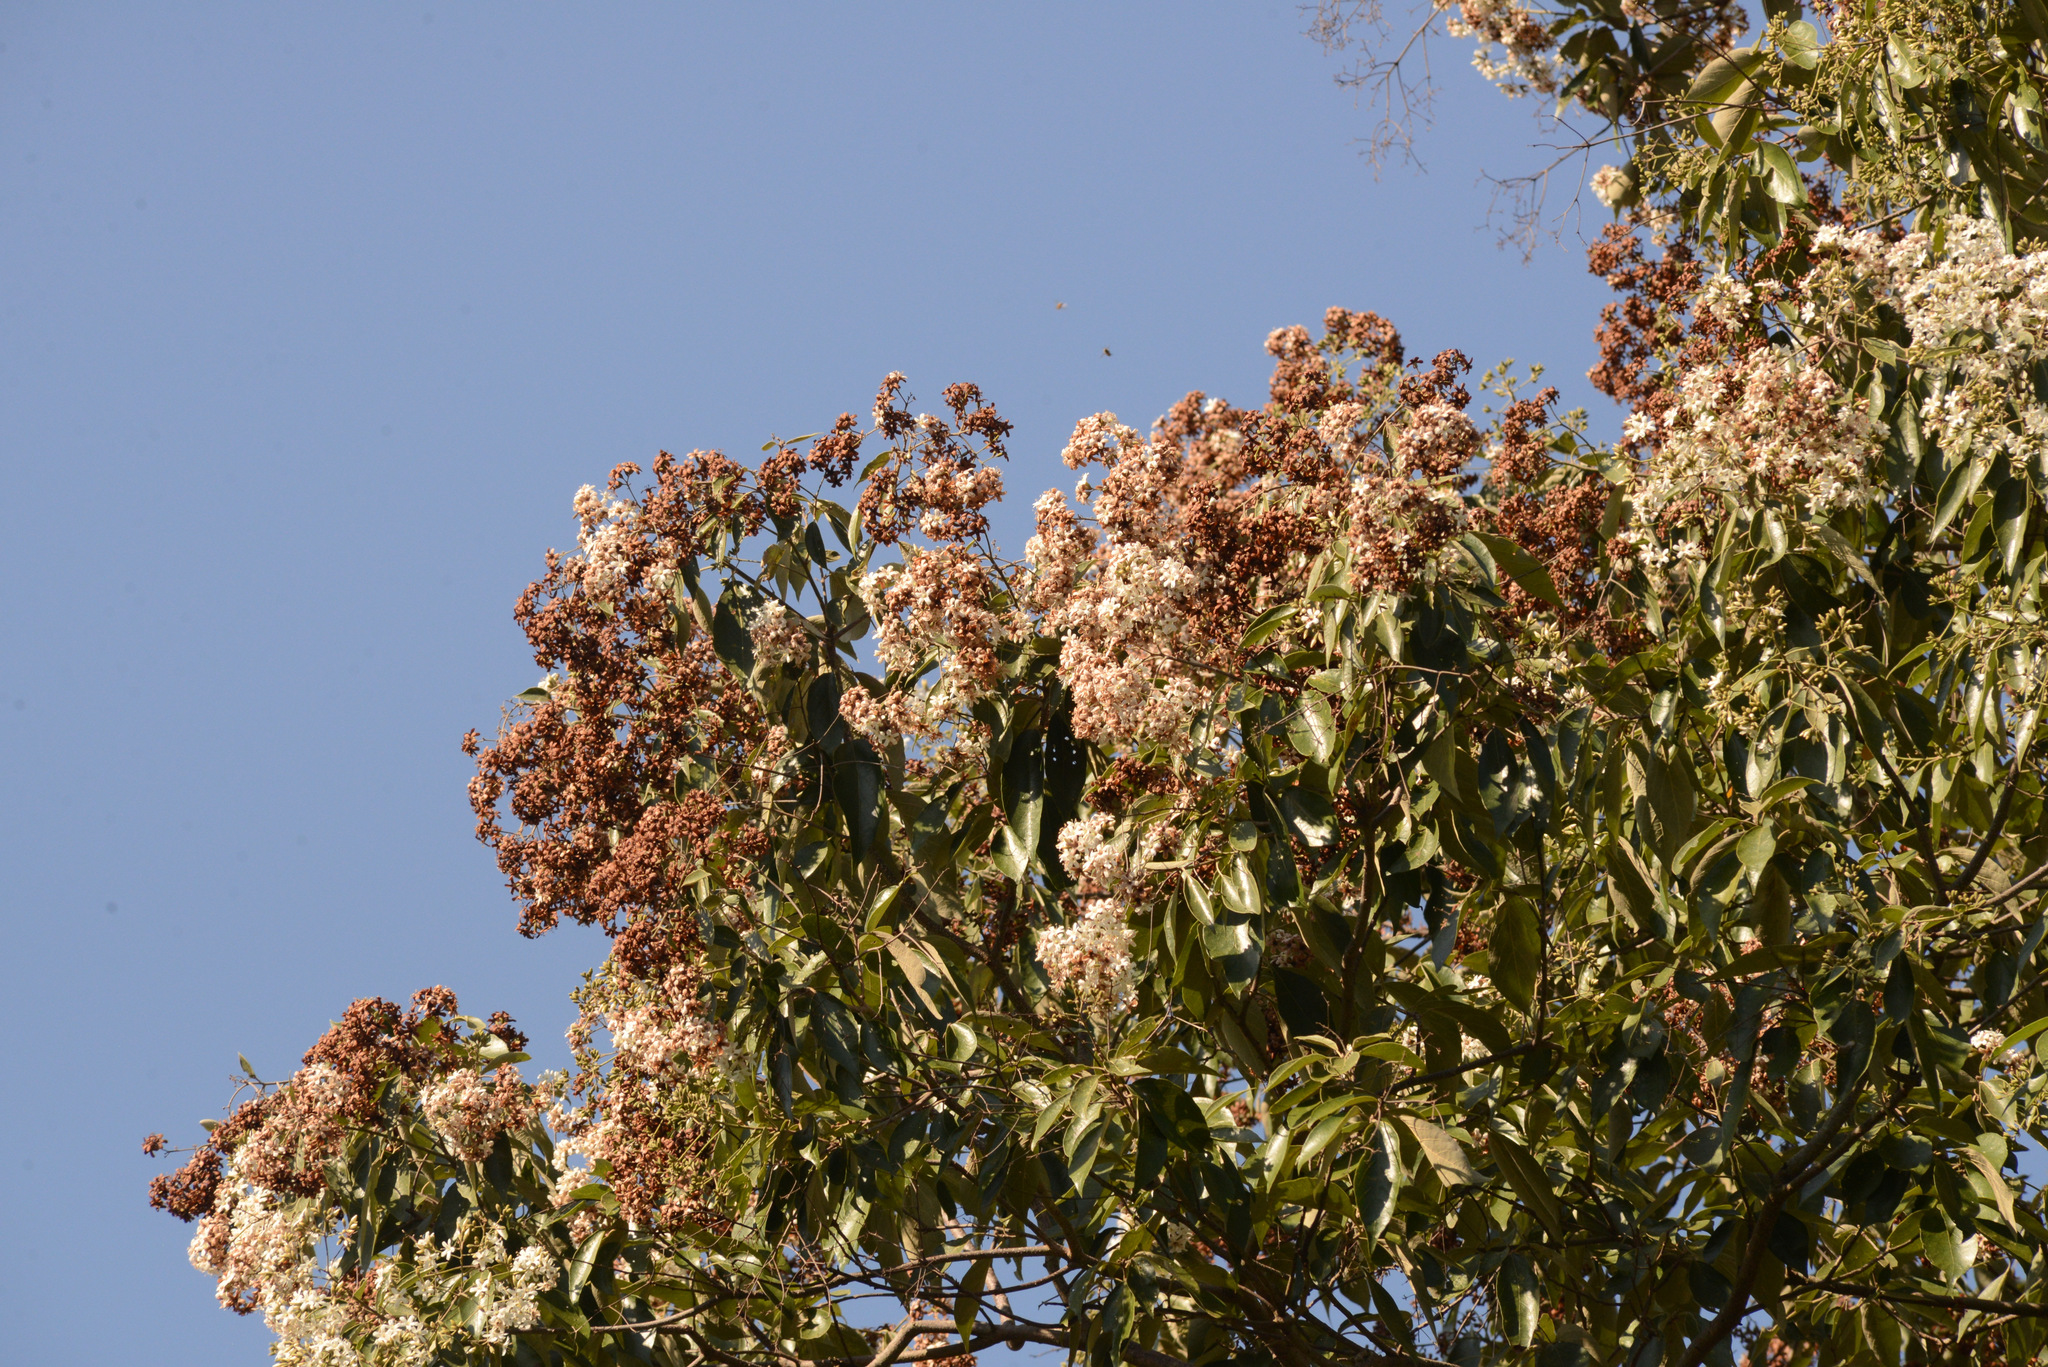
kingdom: Plantae
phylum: Tracheophyta
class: Magnoliopsida
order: Boraginales
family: Cordiaceae
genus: Cordia
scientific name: Cordia trichotoma
